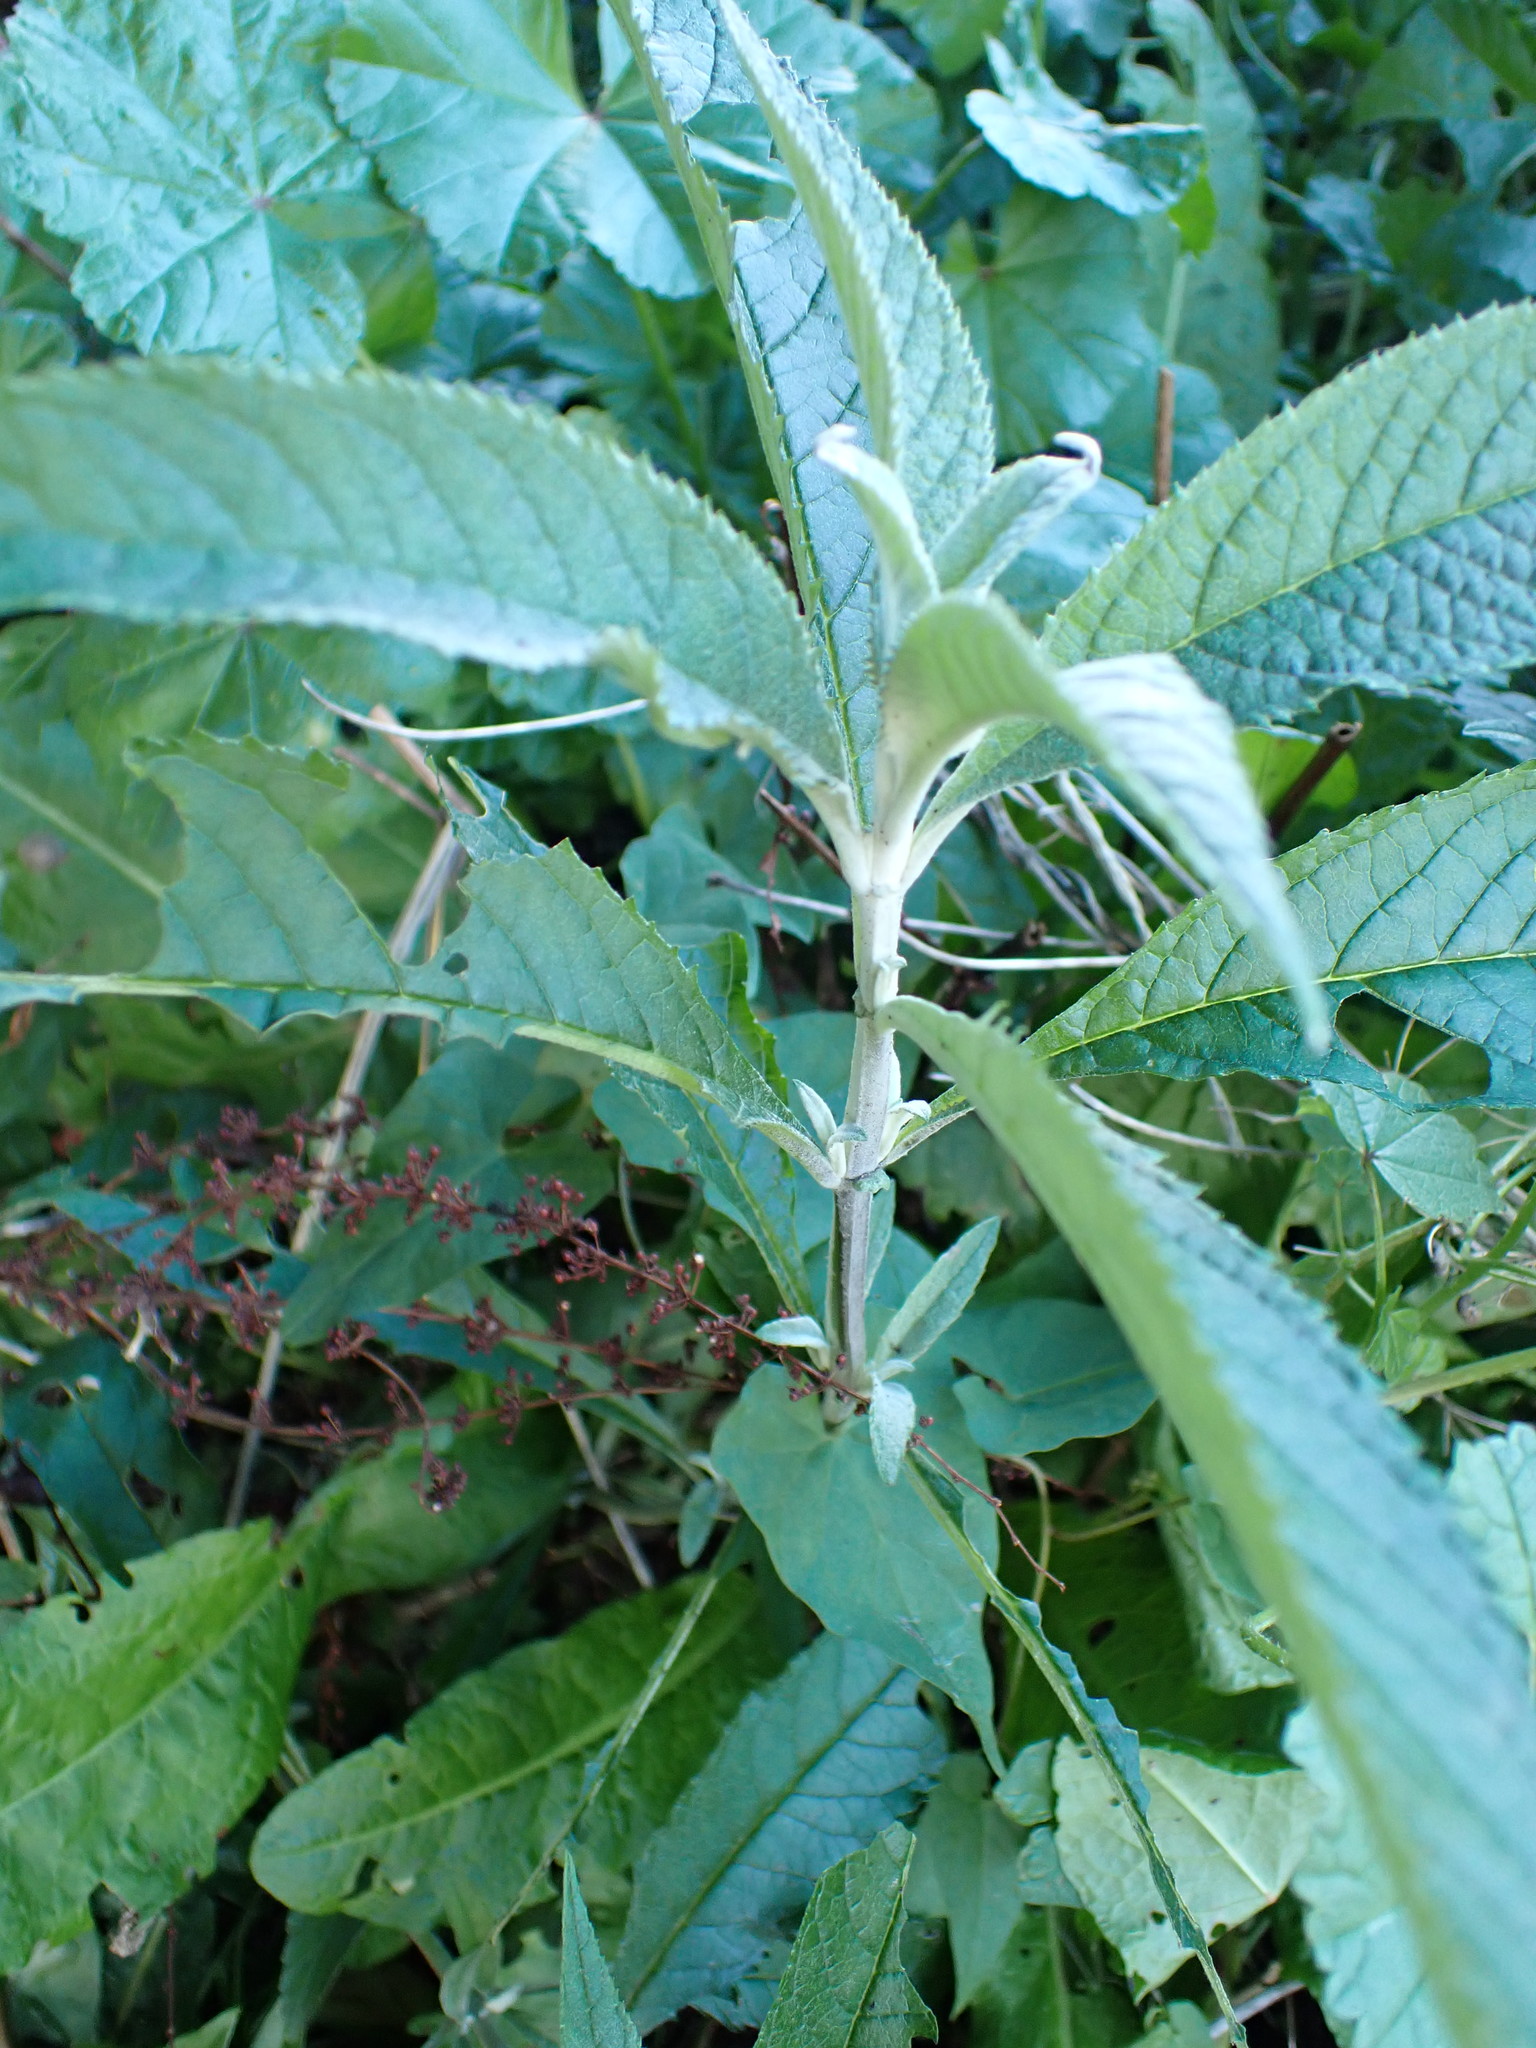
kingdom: Plantae
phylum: Tracheophyta
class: Magnoliopsida
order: Lamiales
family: Scrophulariaceae
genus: Buddleja
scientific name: Buddleja davidii
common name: Butterfly-bush
